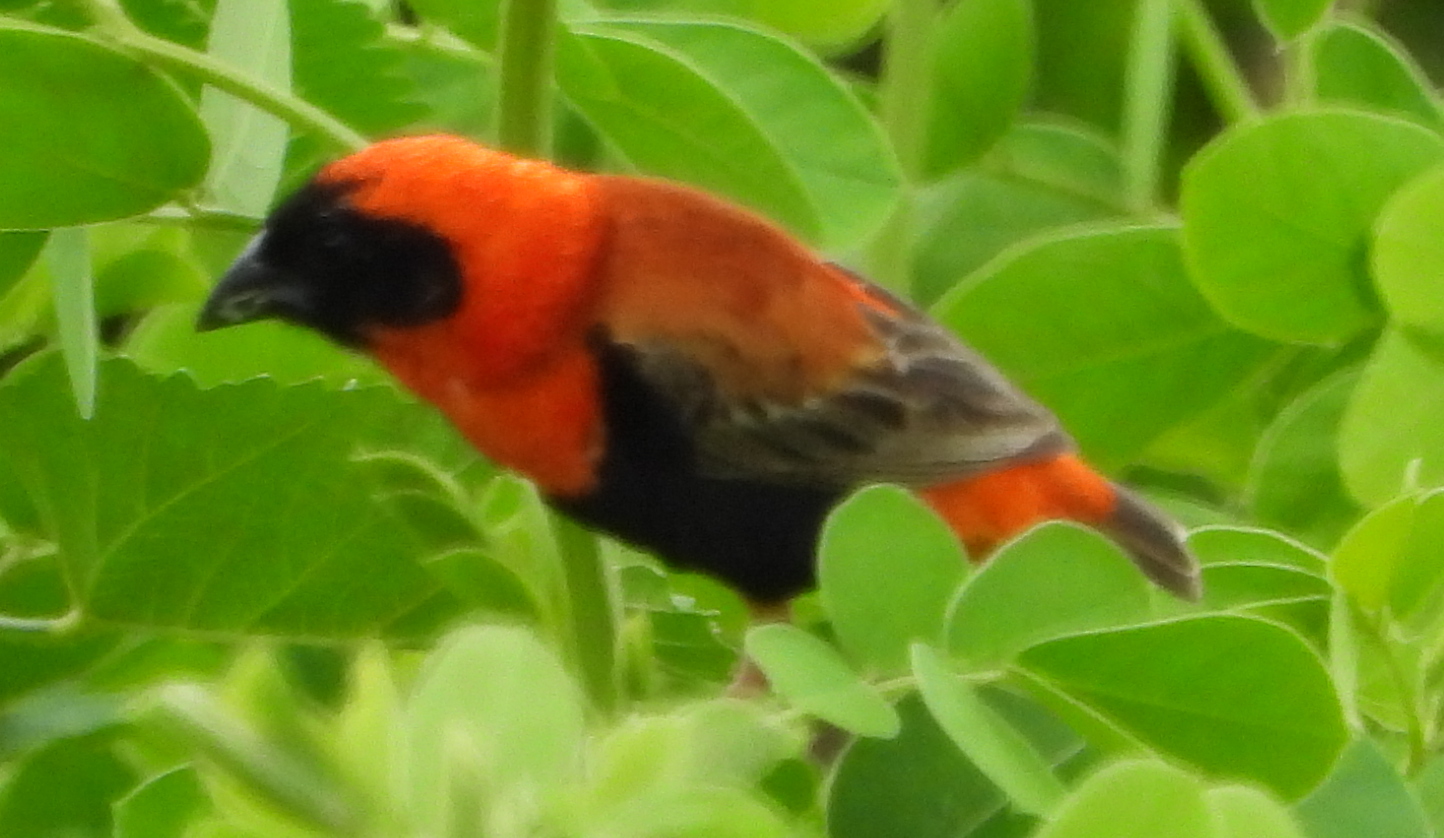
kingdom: Animalia
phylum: Chordata
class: Aves
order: Passeriformes
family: Ploceidae
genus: Euplectes
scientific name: Euplectes orix
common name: Southern red bishop
